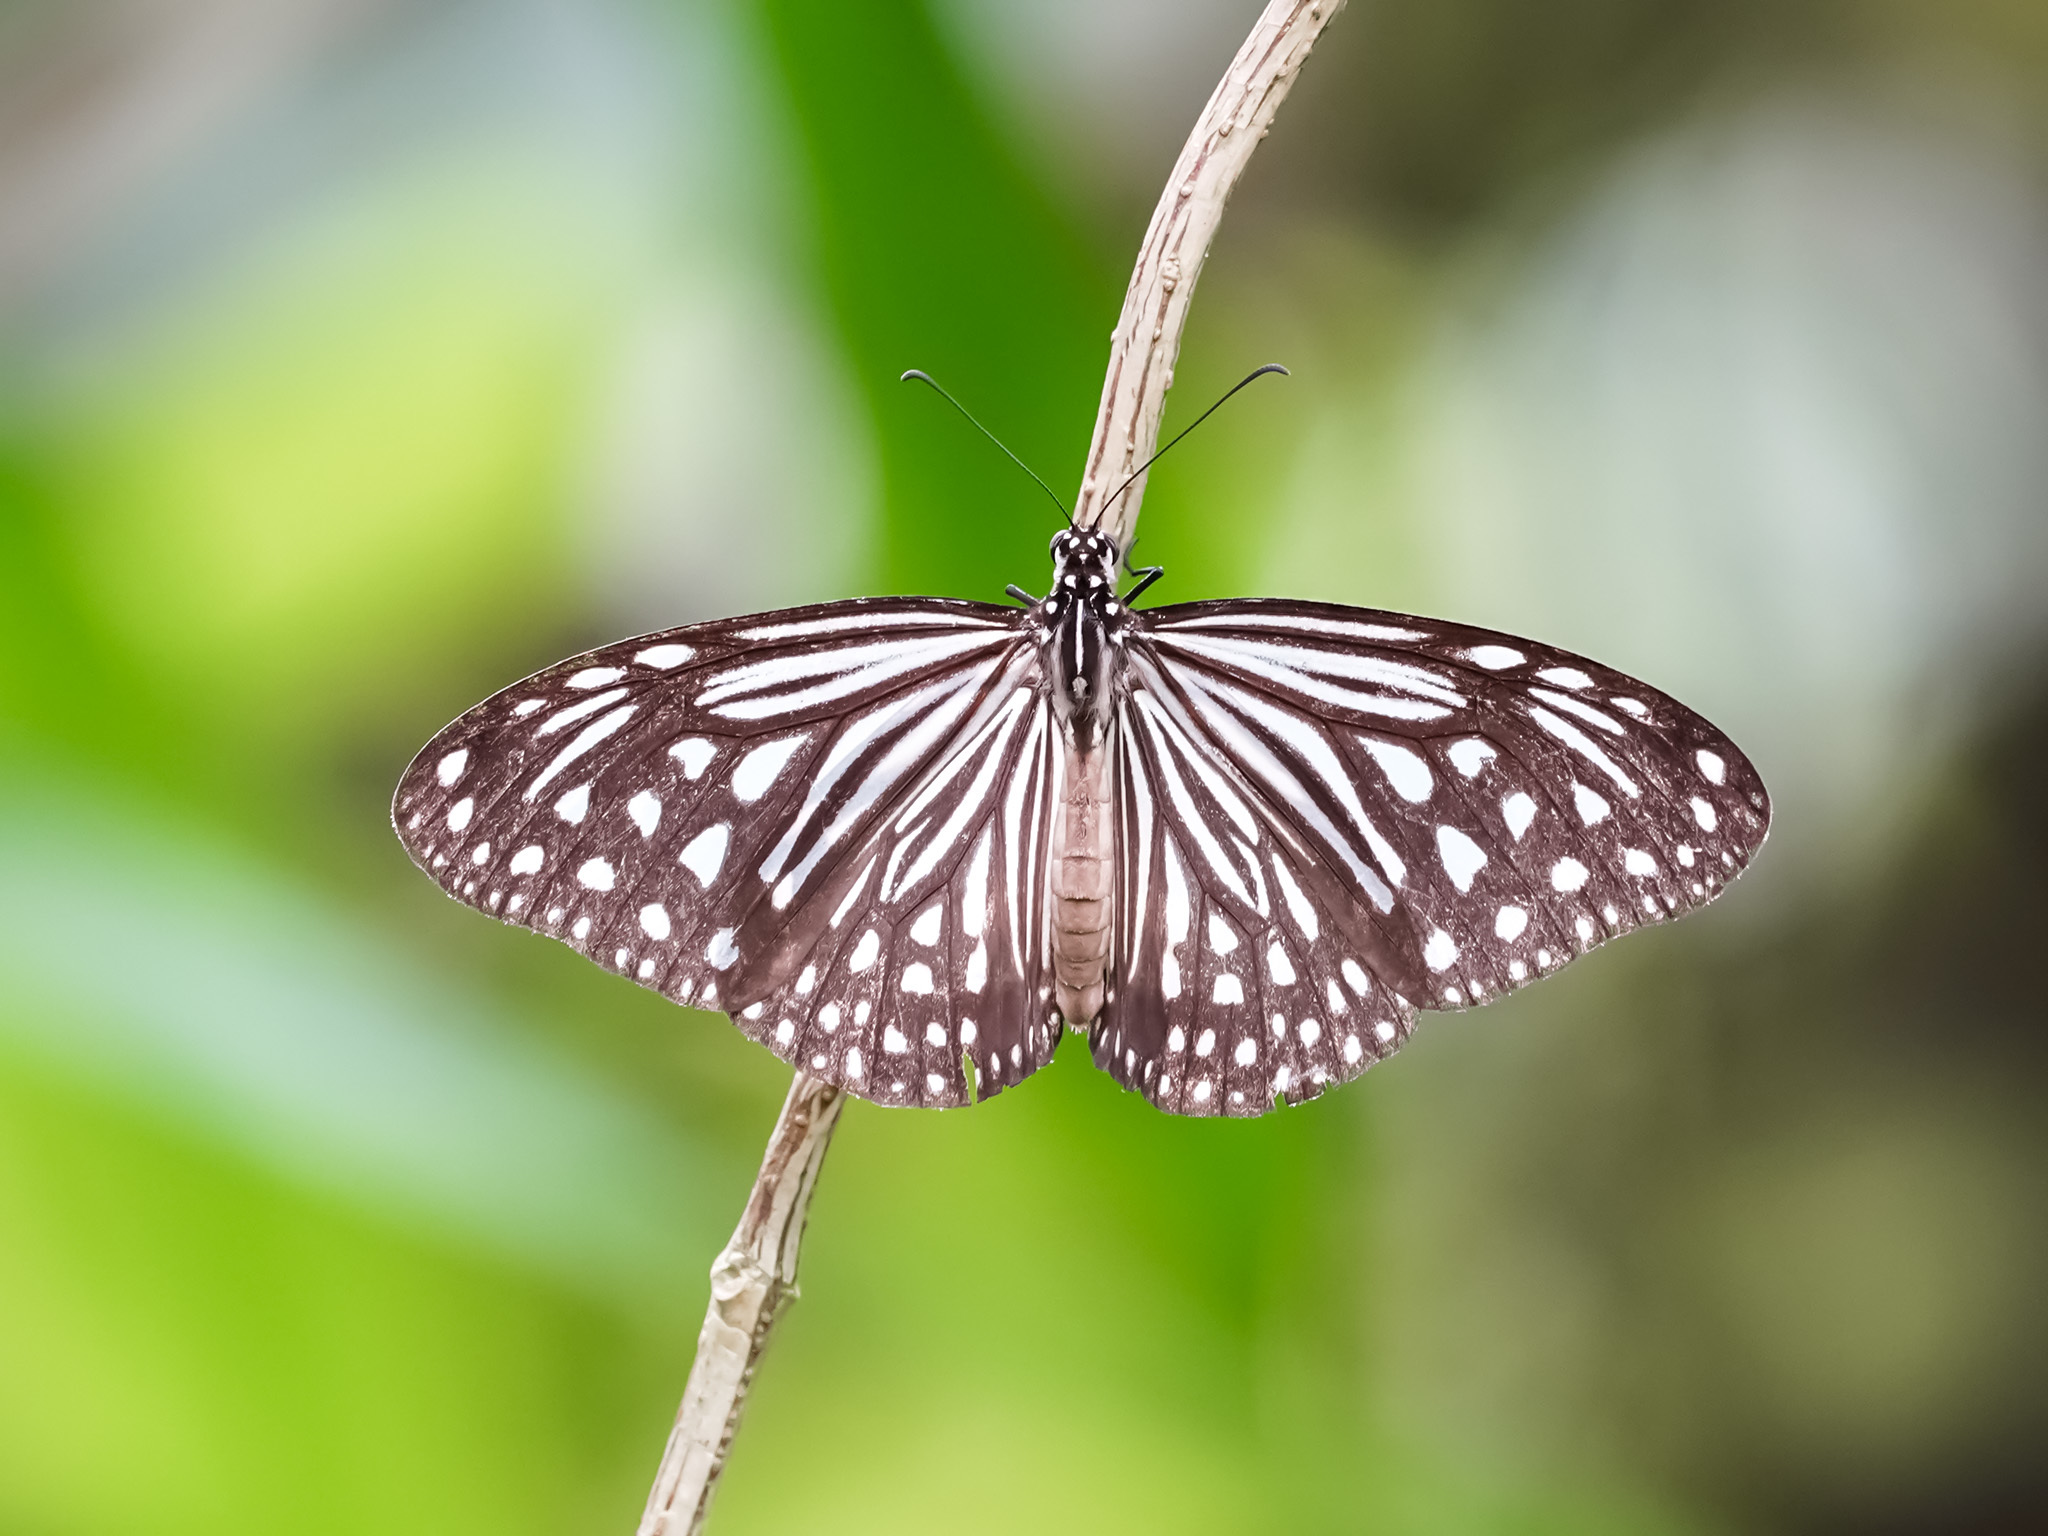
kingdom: Animalia
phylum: Arthropoda
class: Insecta
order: Lepidoptera
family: Nymphalidae
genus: Parantica
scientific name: Parantica agleoides
